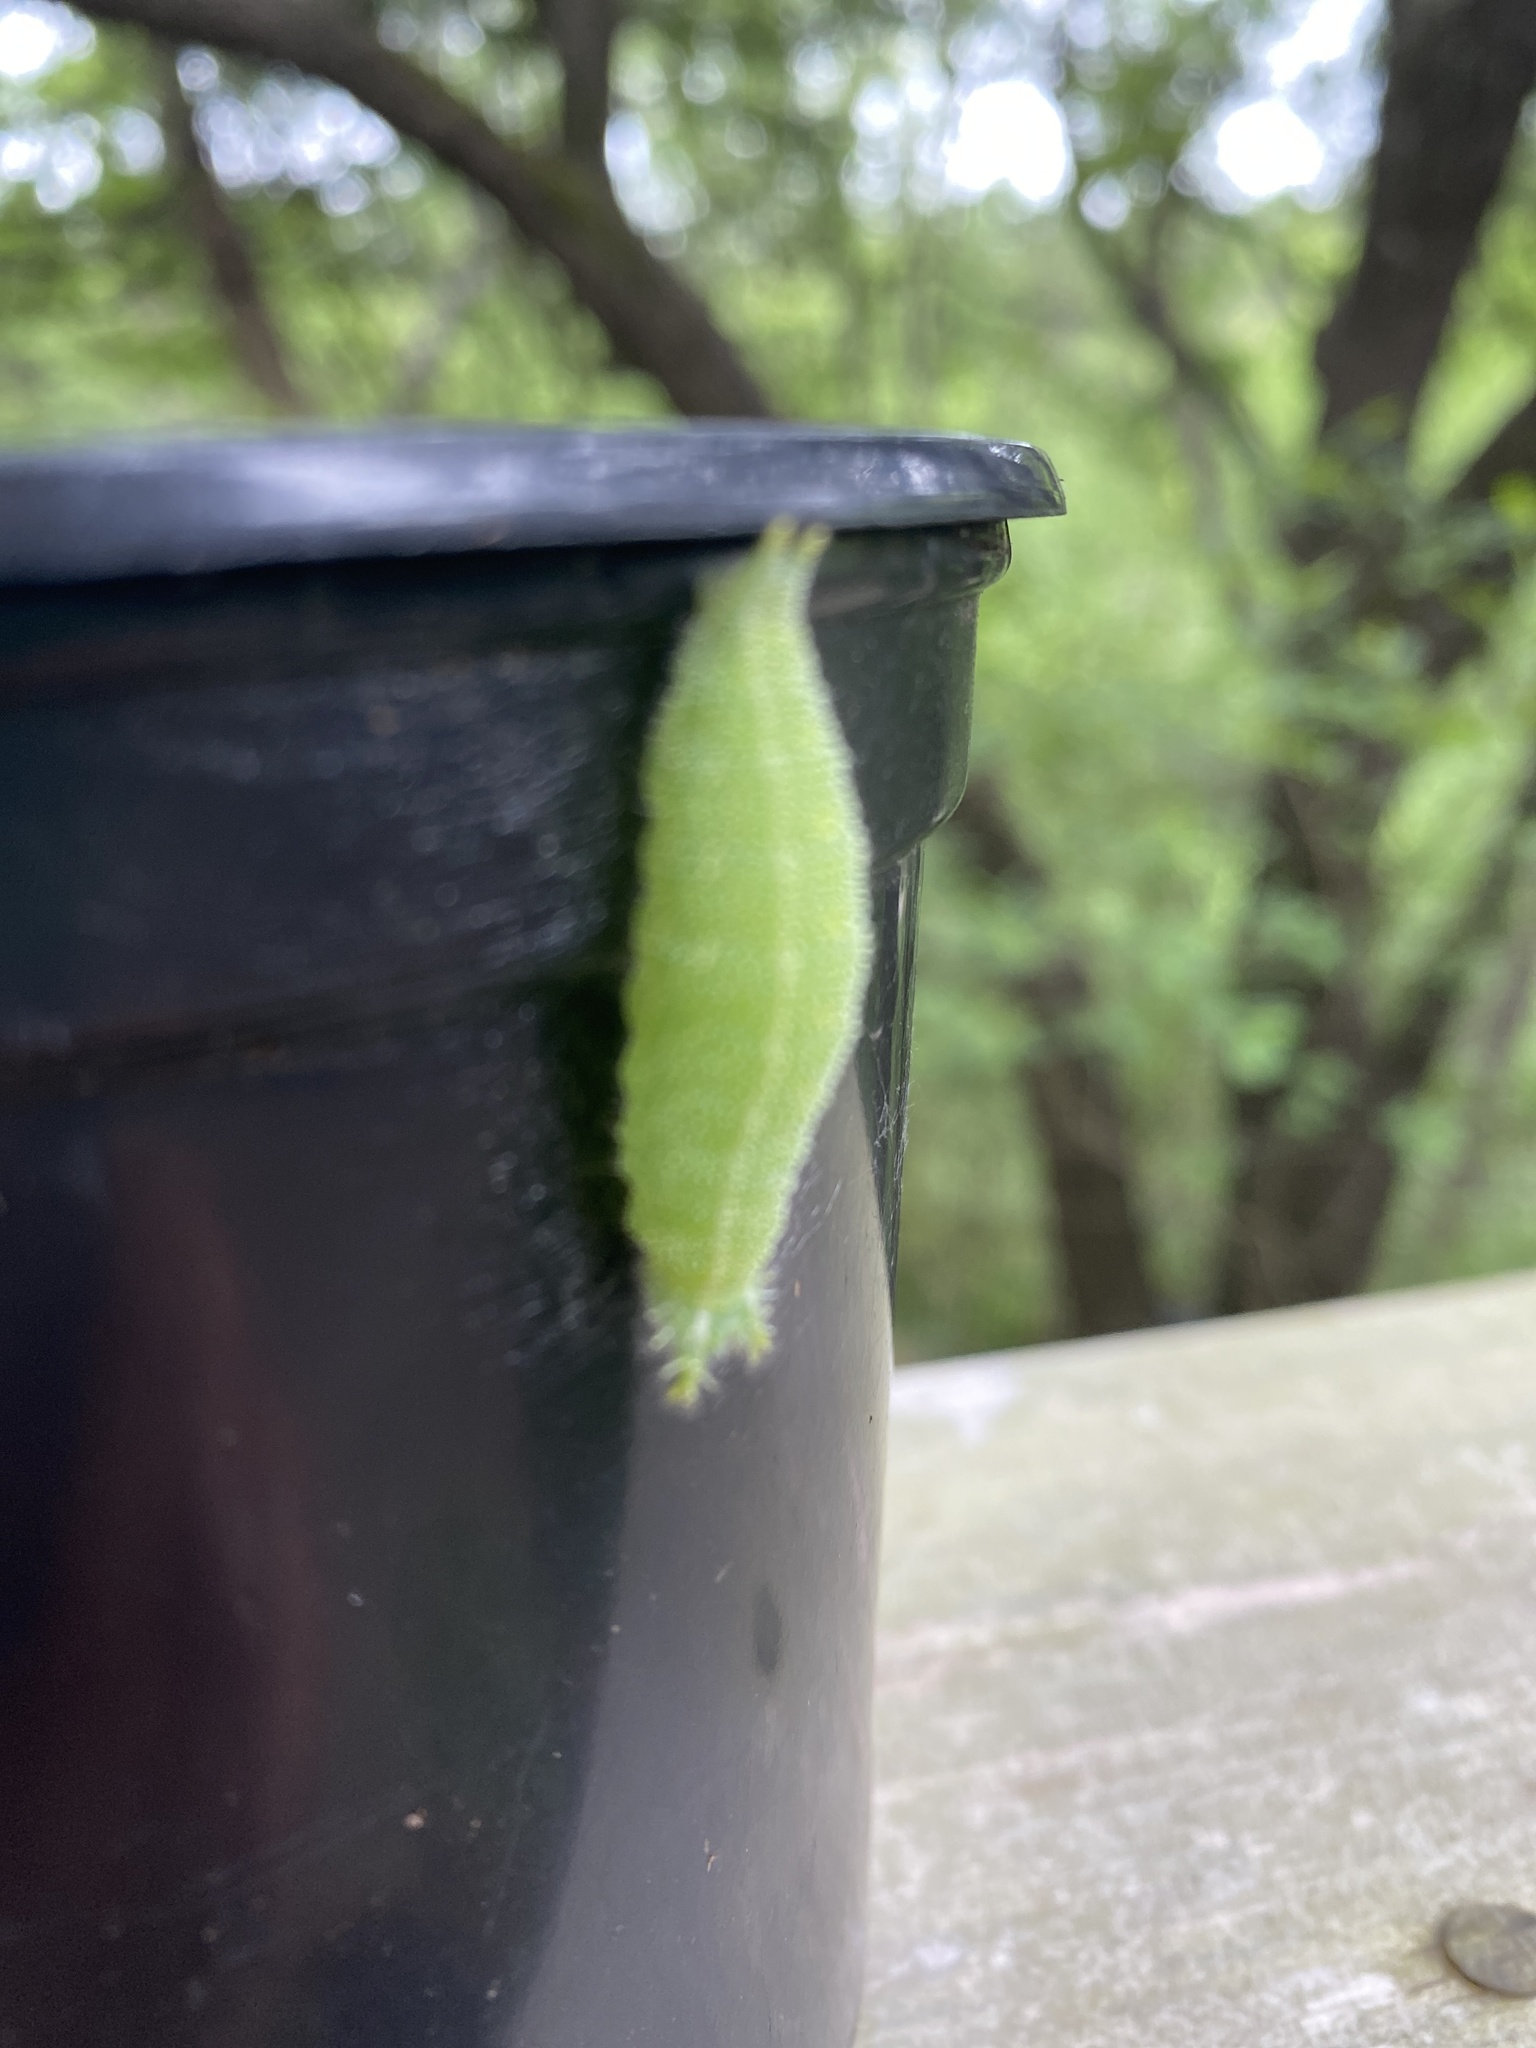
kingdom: Animalia
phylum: Arthropoda
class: Insecta
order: Lepidoptera
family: Nymphalidae
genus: Asterocampa
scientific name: Asterocampa celtis
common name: Hackberry emperor
